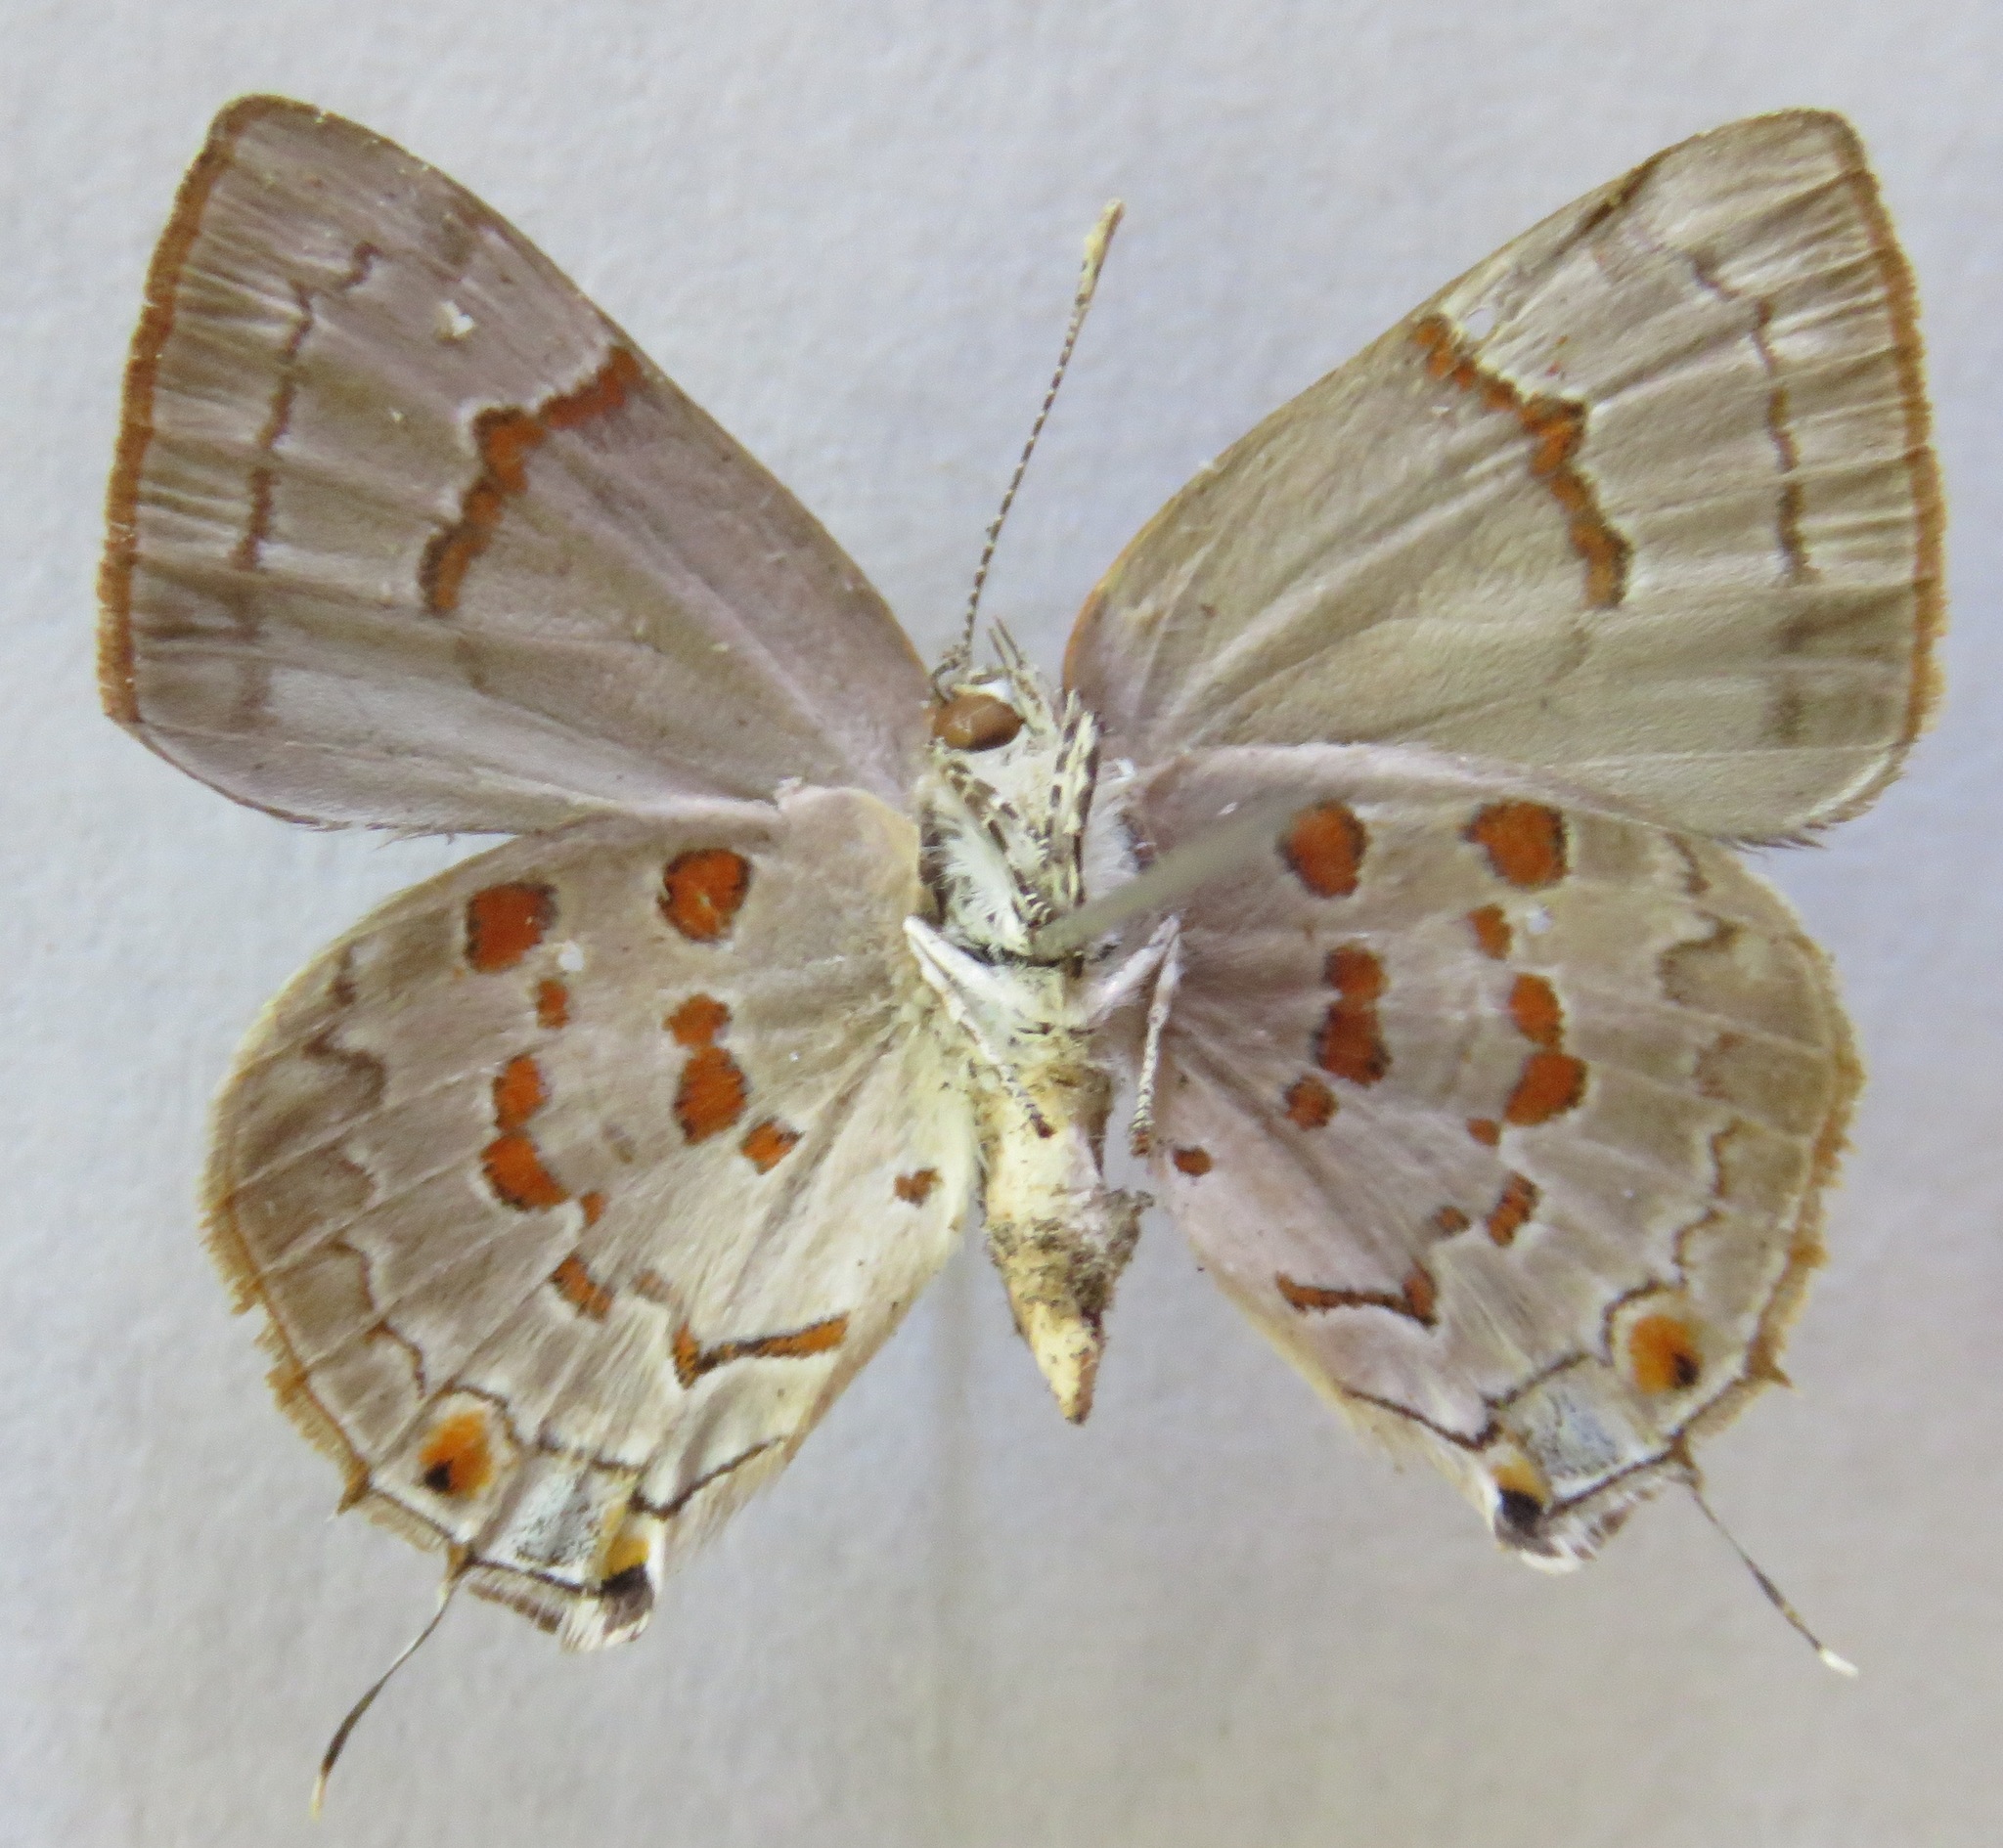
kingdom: Animalia
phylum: Arthropoda
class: Insecta
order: Lepidoptera
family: Lycaenidae
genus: Tmolus
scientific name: Tmolus echion
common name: Red-spotted hairstreak
